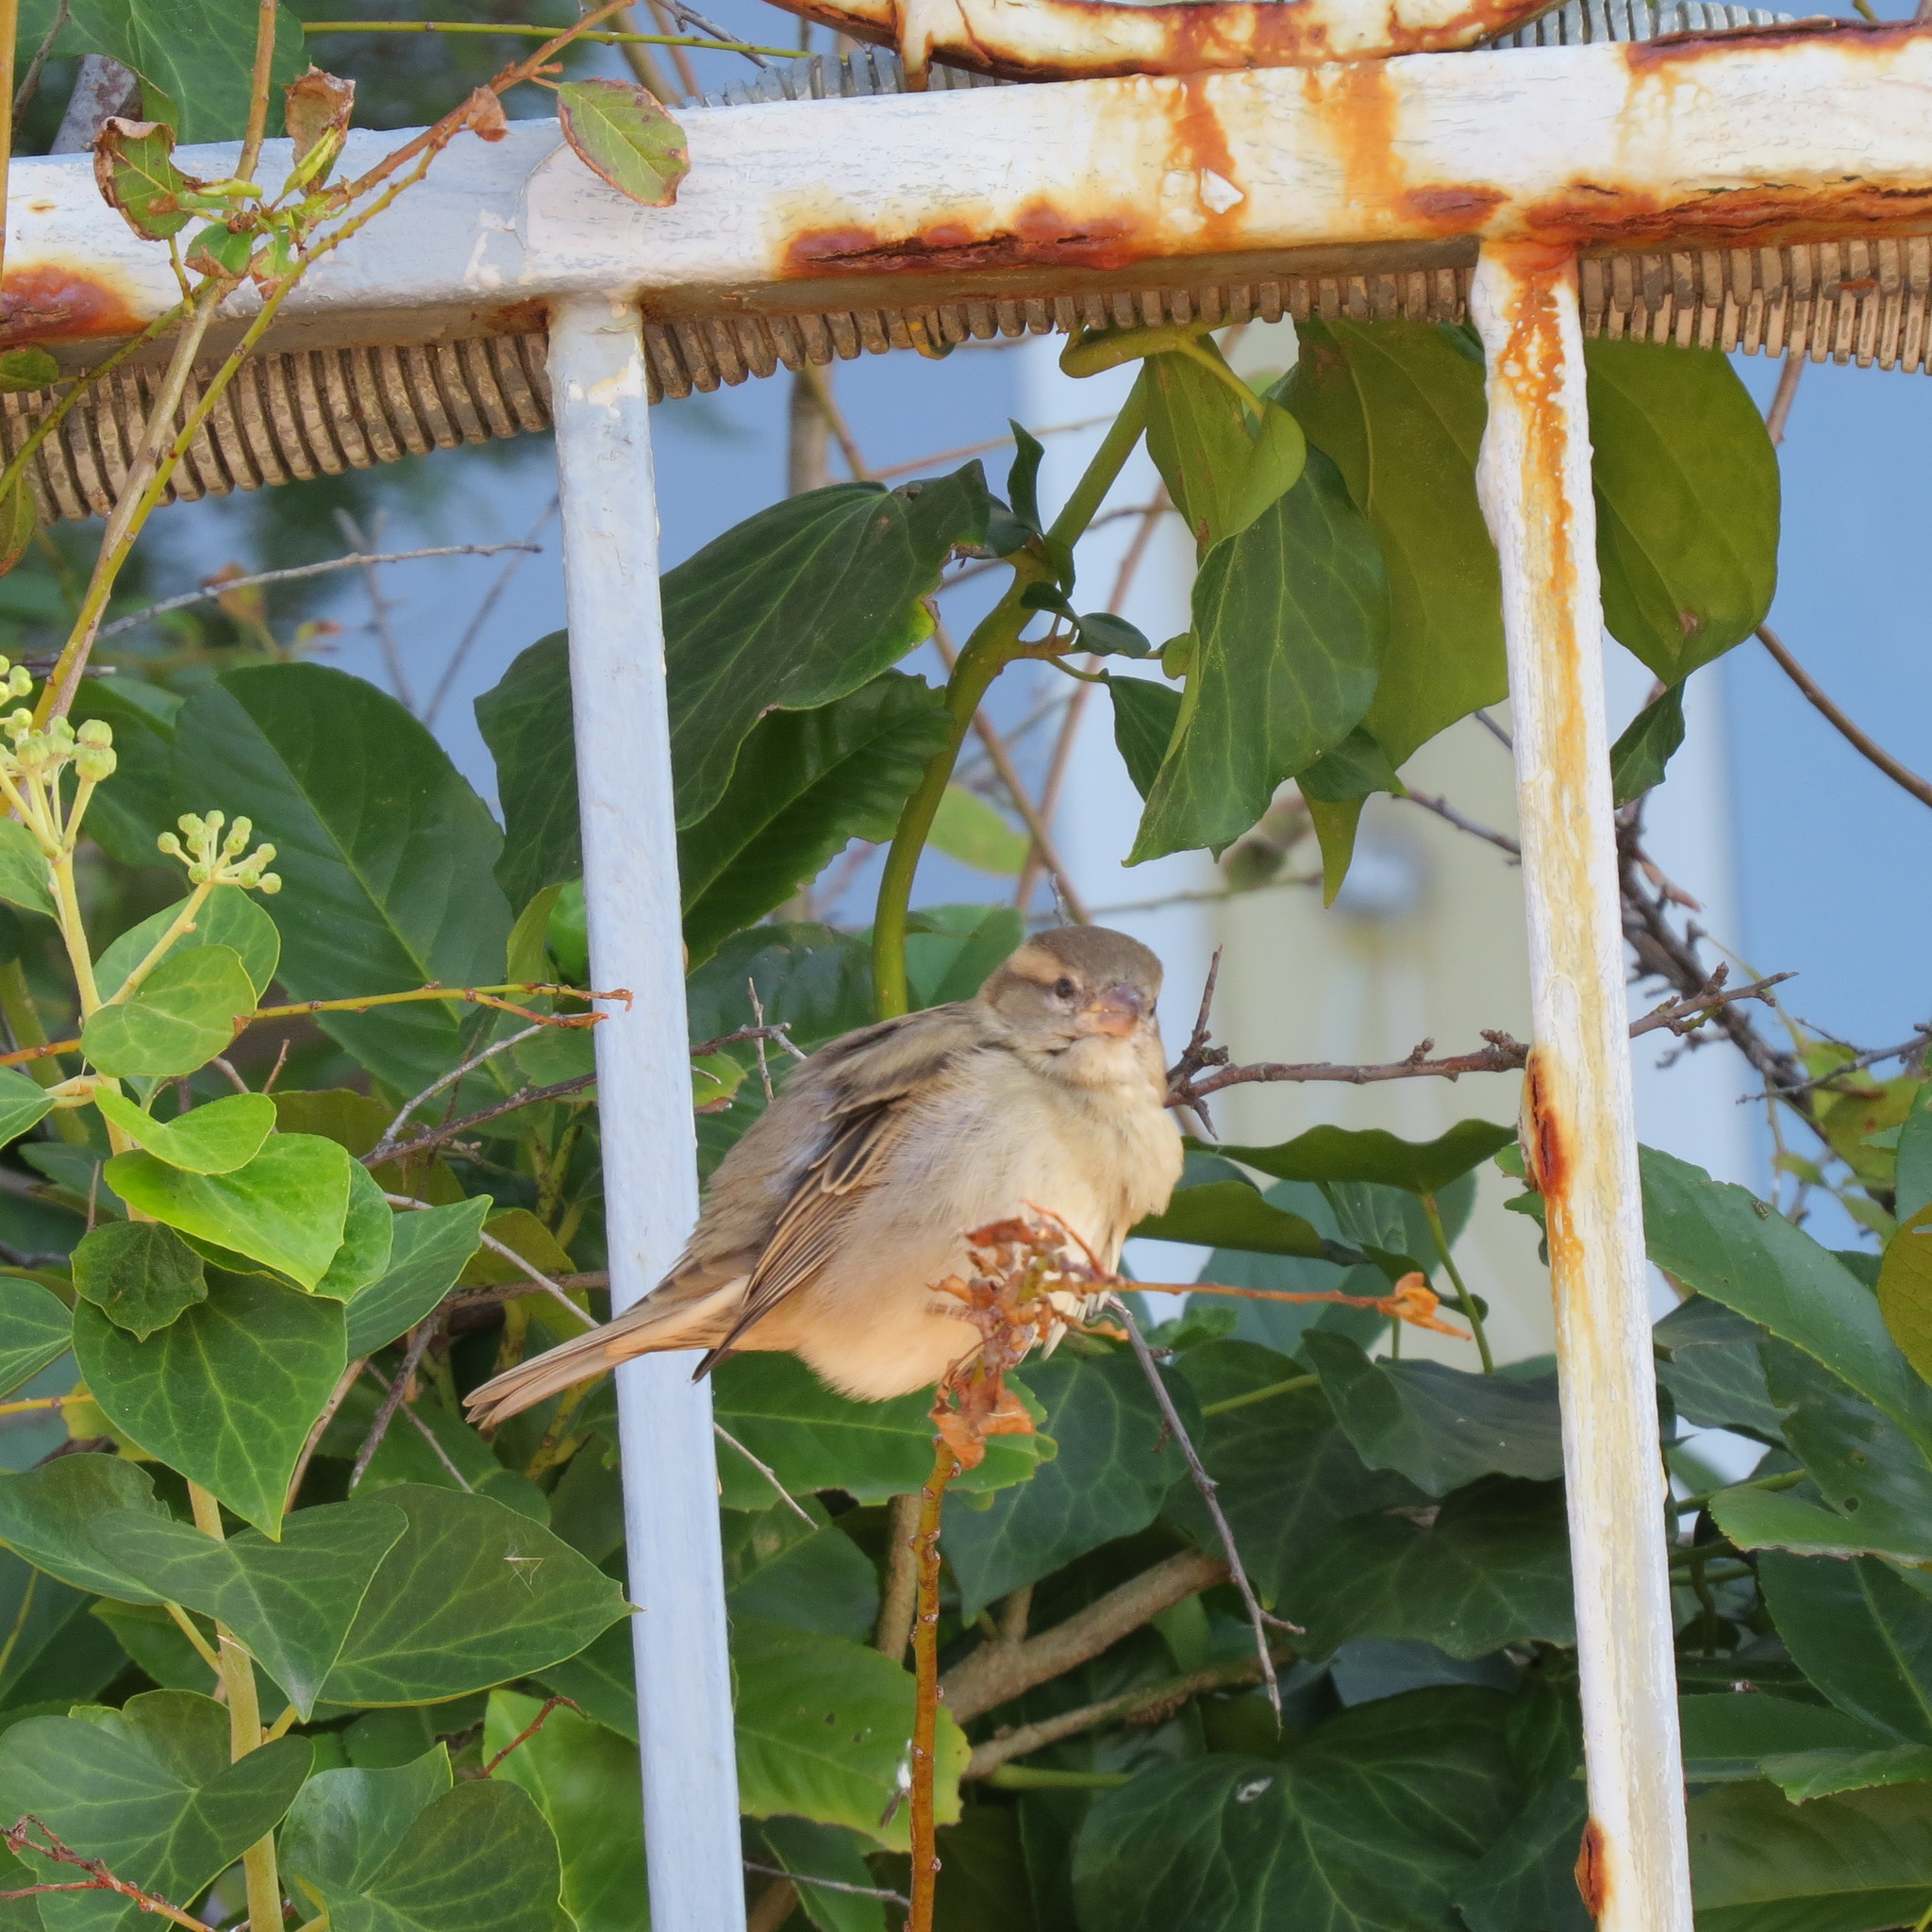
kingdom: Animalia
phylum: Chordata
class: Aves
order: Passeriformes
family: Passeridae
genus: Passer
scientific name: Passer domesticus
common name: House sparrow
